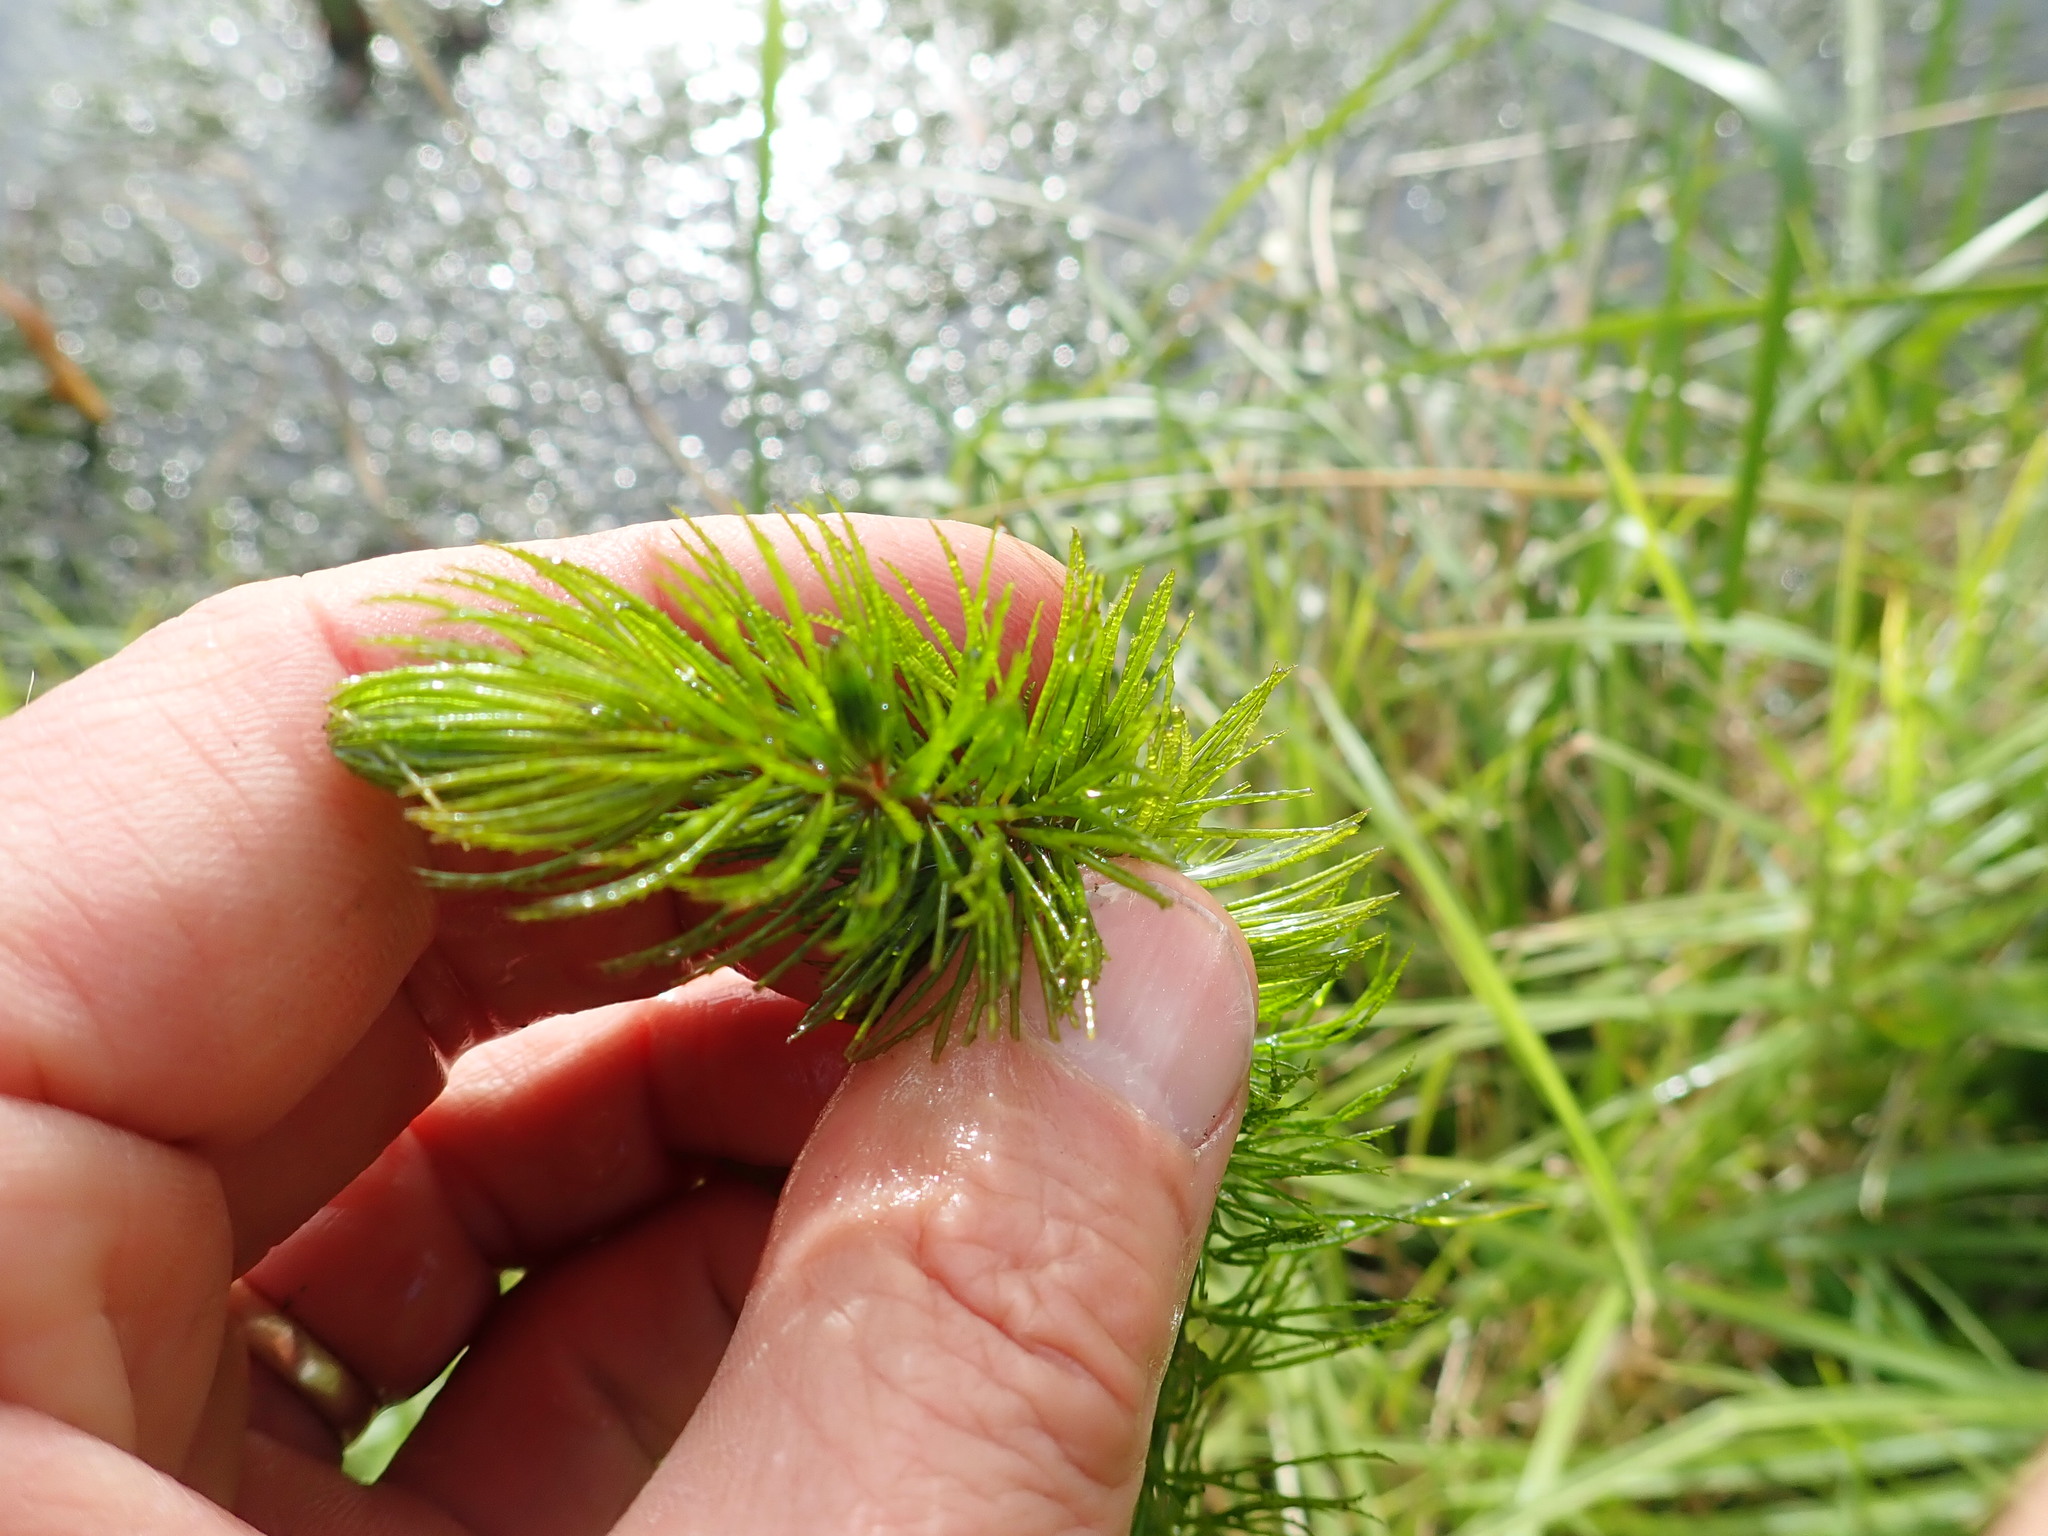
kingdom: Plantae
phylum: Tracheophyta
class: Magnoliopsida
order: Ceratophyllales
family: Ceratophyllaceae
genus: Ceratophyllum
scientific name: Ceratophyllum demersum
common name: Rigid hornwort
